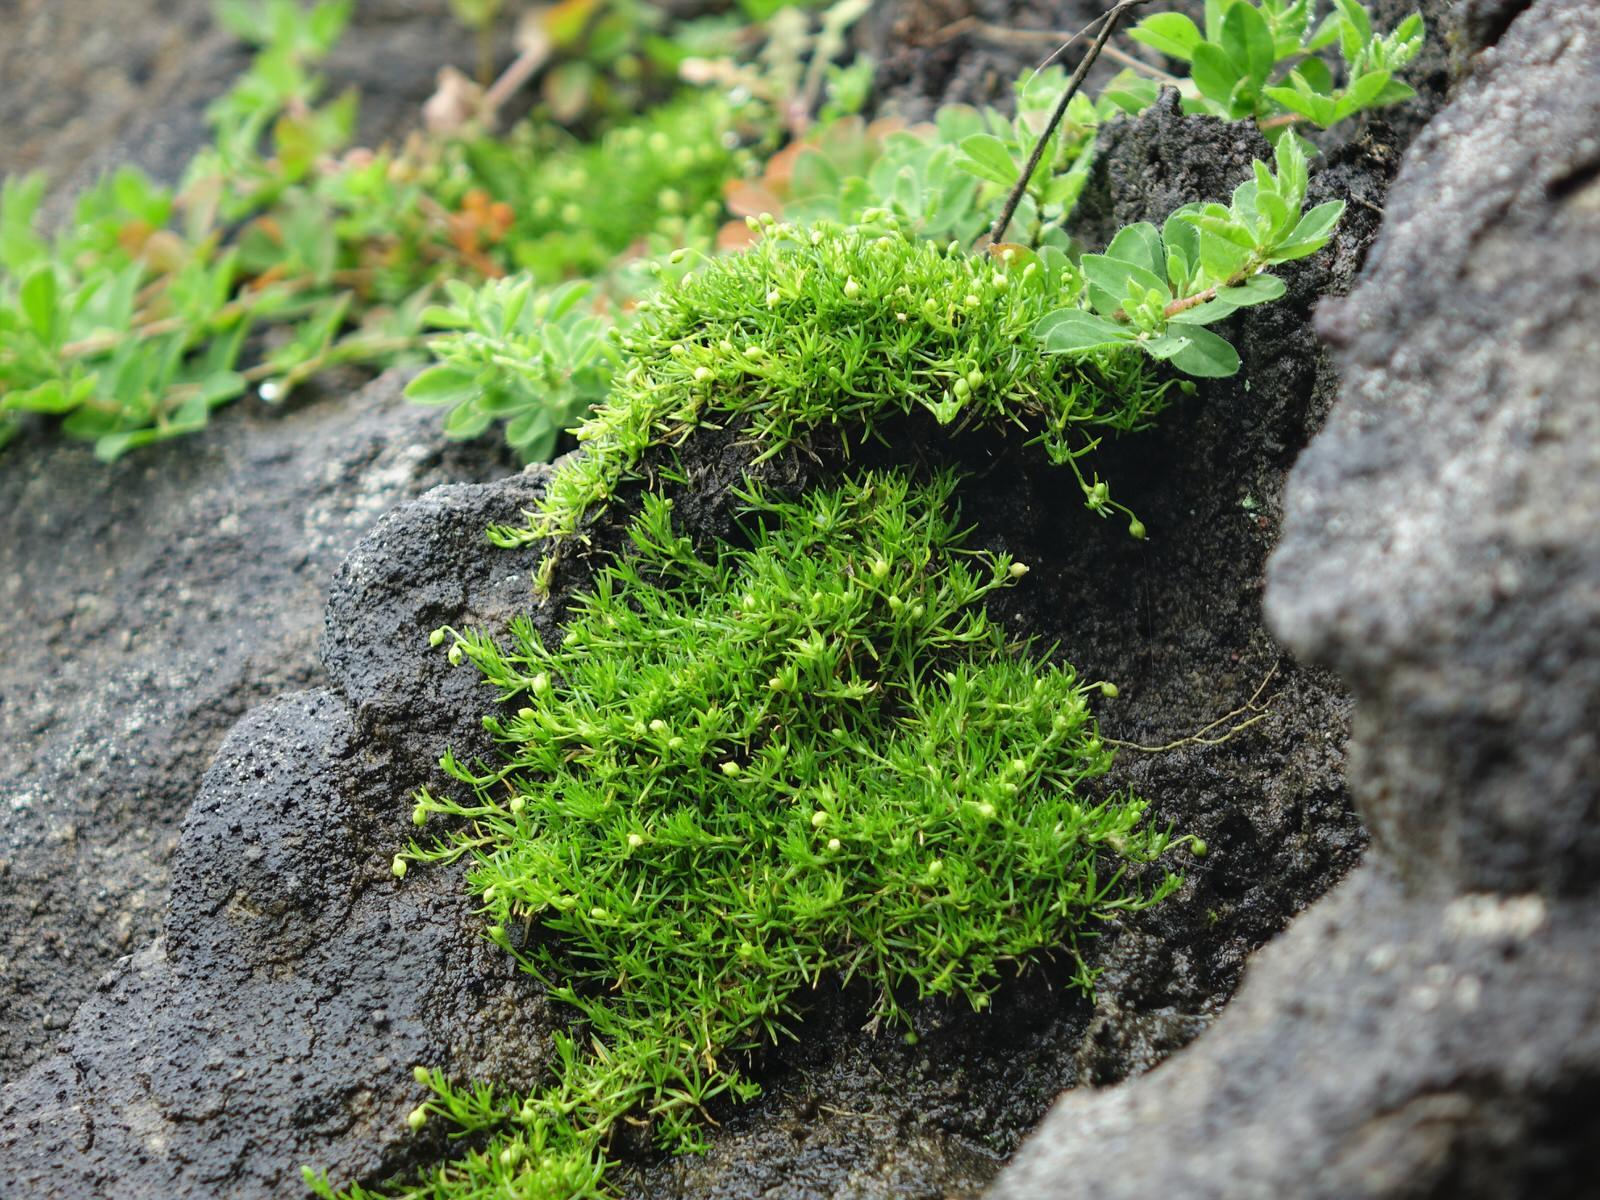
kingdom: Plantae
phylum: Tracheophyta
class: Magnoliopsida
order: Caryophyllales
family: Caryophyllaceae
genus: Sagina
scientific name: Sagina procumbens
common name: Procumbent pearlwort
